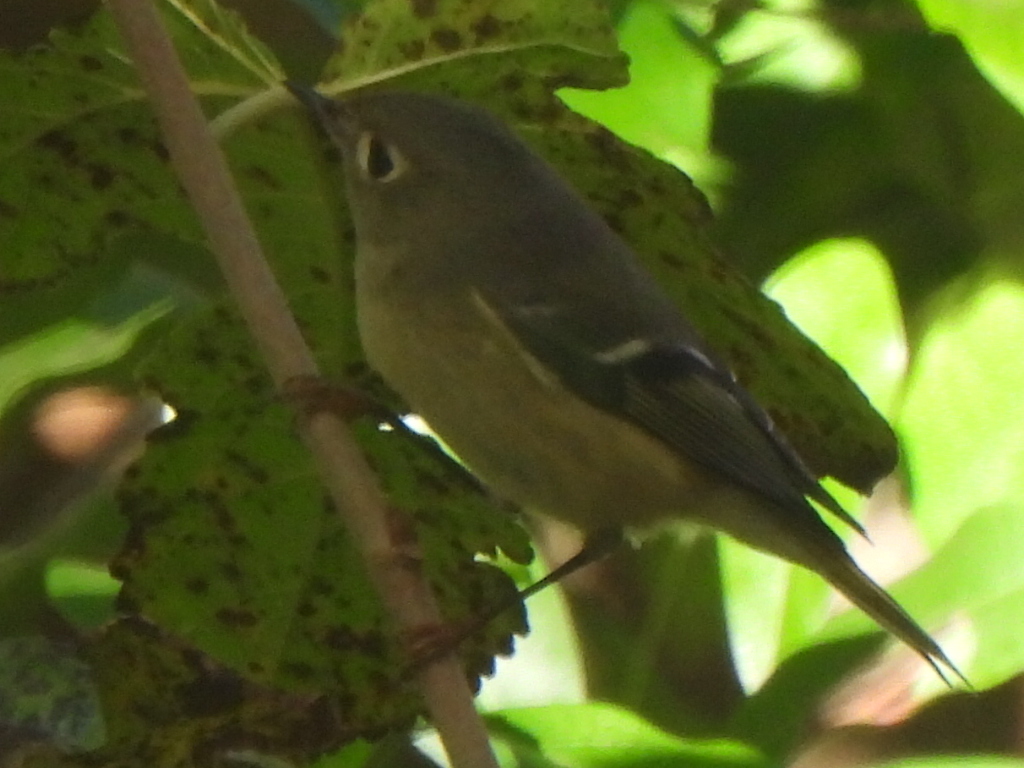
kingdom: Animalia
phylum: Chordata
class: Aves
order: Passeriformes
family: Regulidae
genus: Regulus
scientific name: Regulus calendula
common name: Ruby-crowned kinglet
